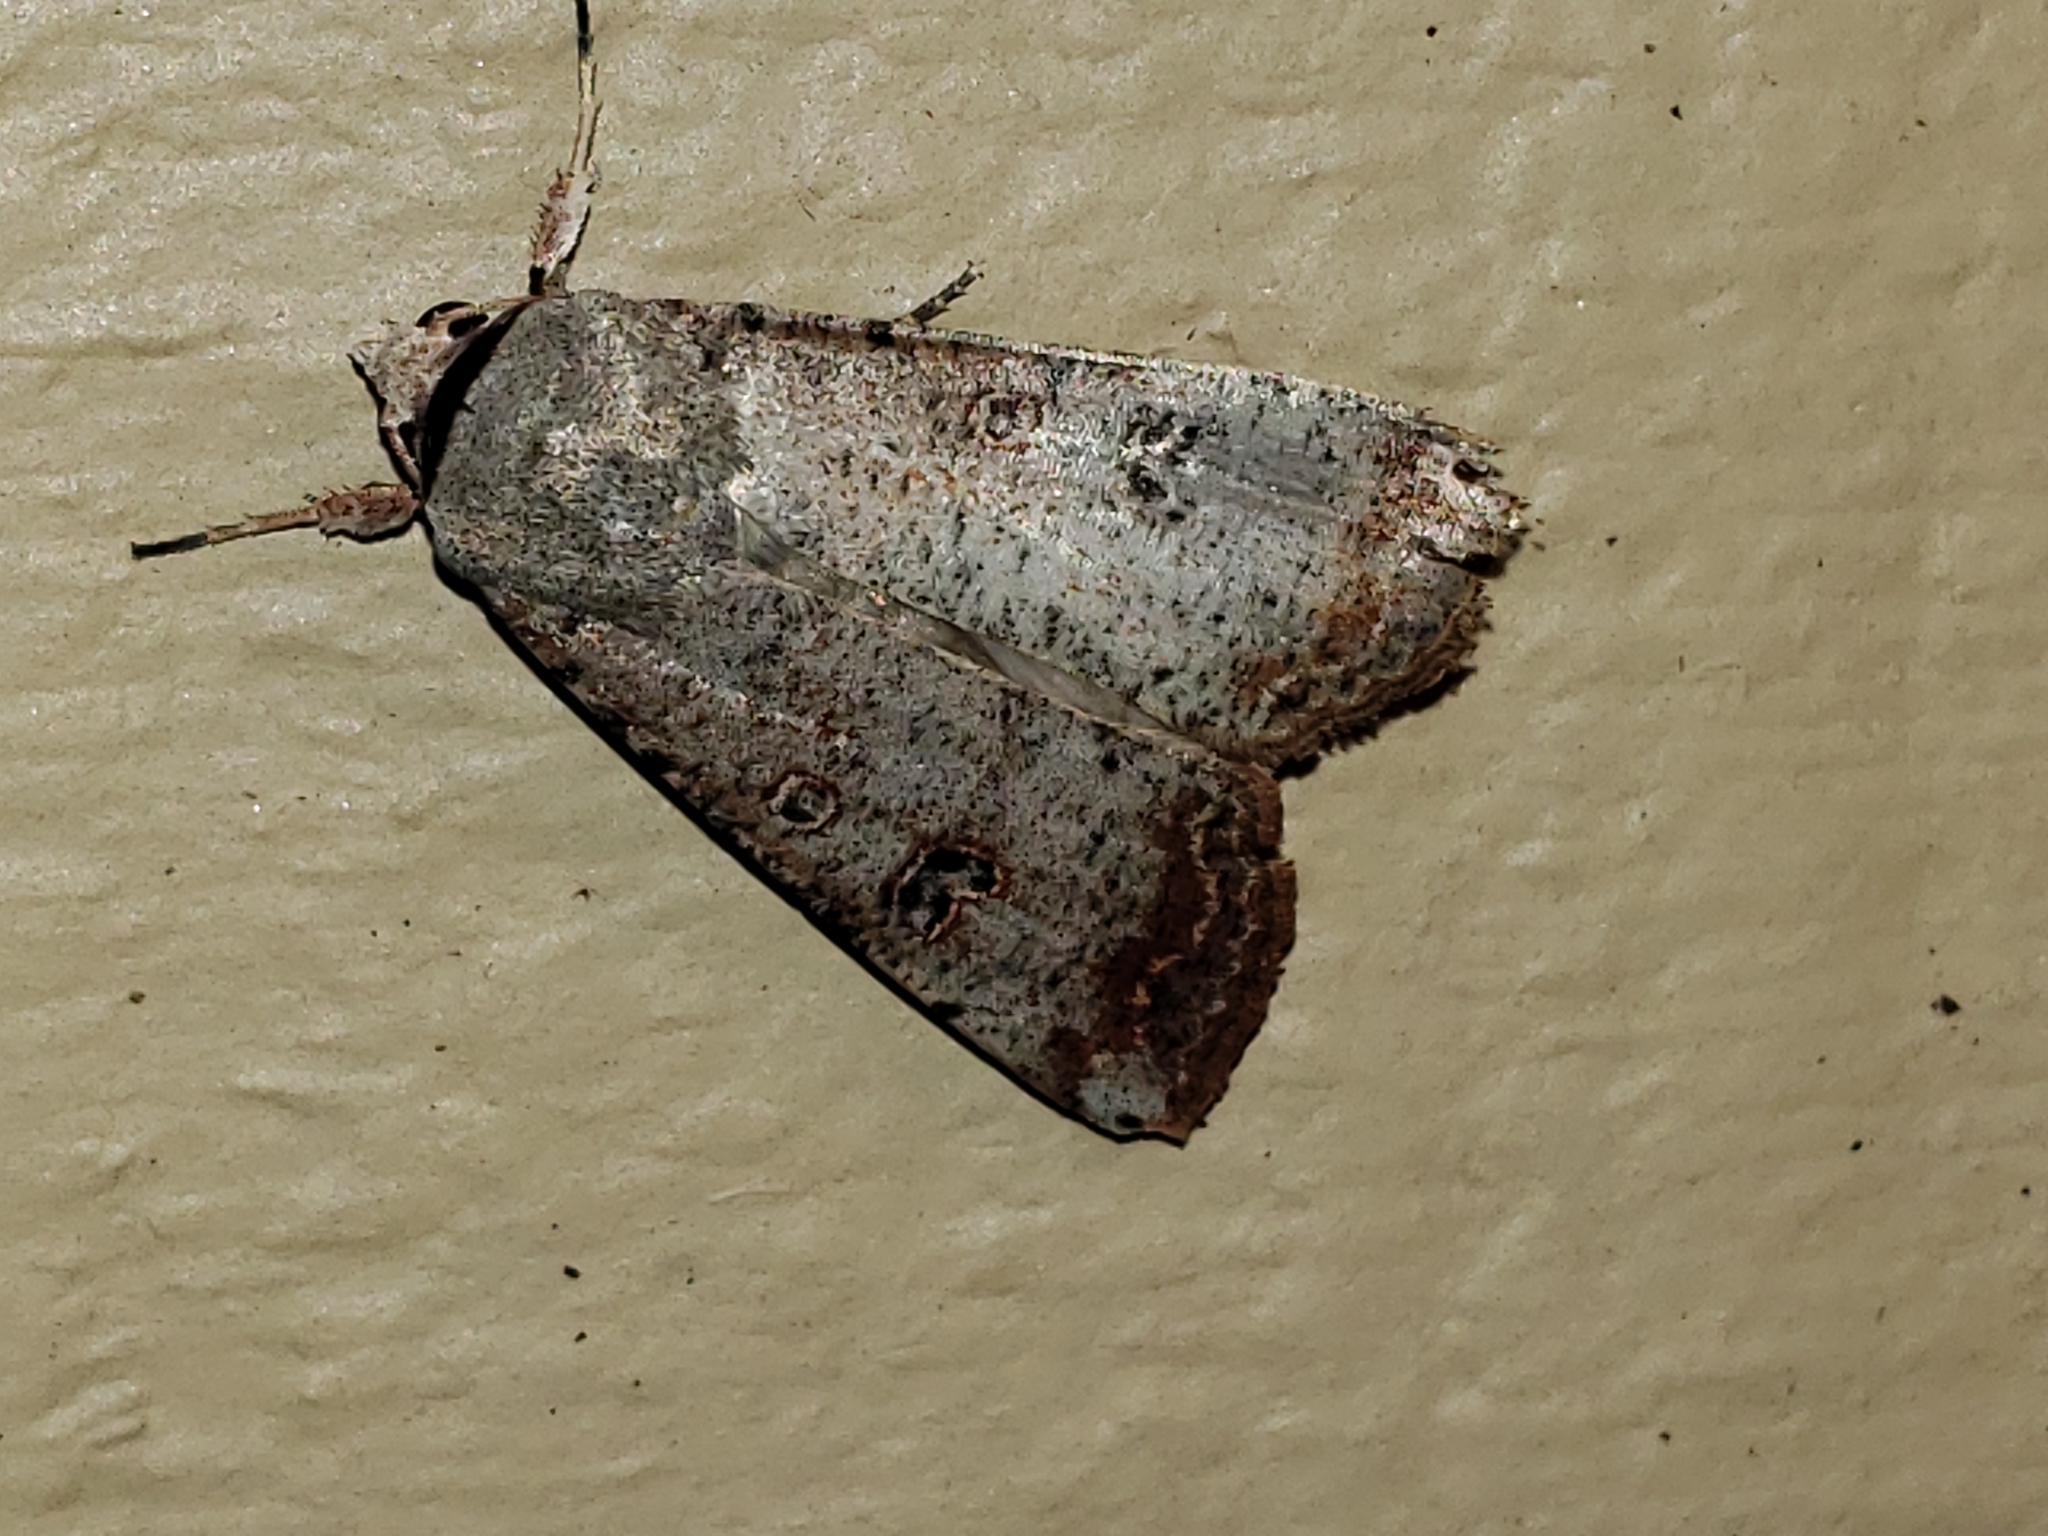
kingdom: Animalia
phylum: Arthropoda
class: Insecta
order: Lepidoptera
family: Noctuidae
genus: Anicla
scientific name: Anicla infecta
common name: Green cutworm
